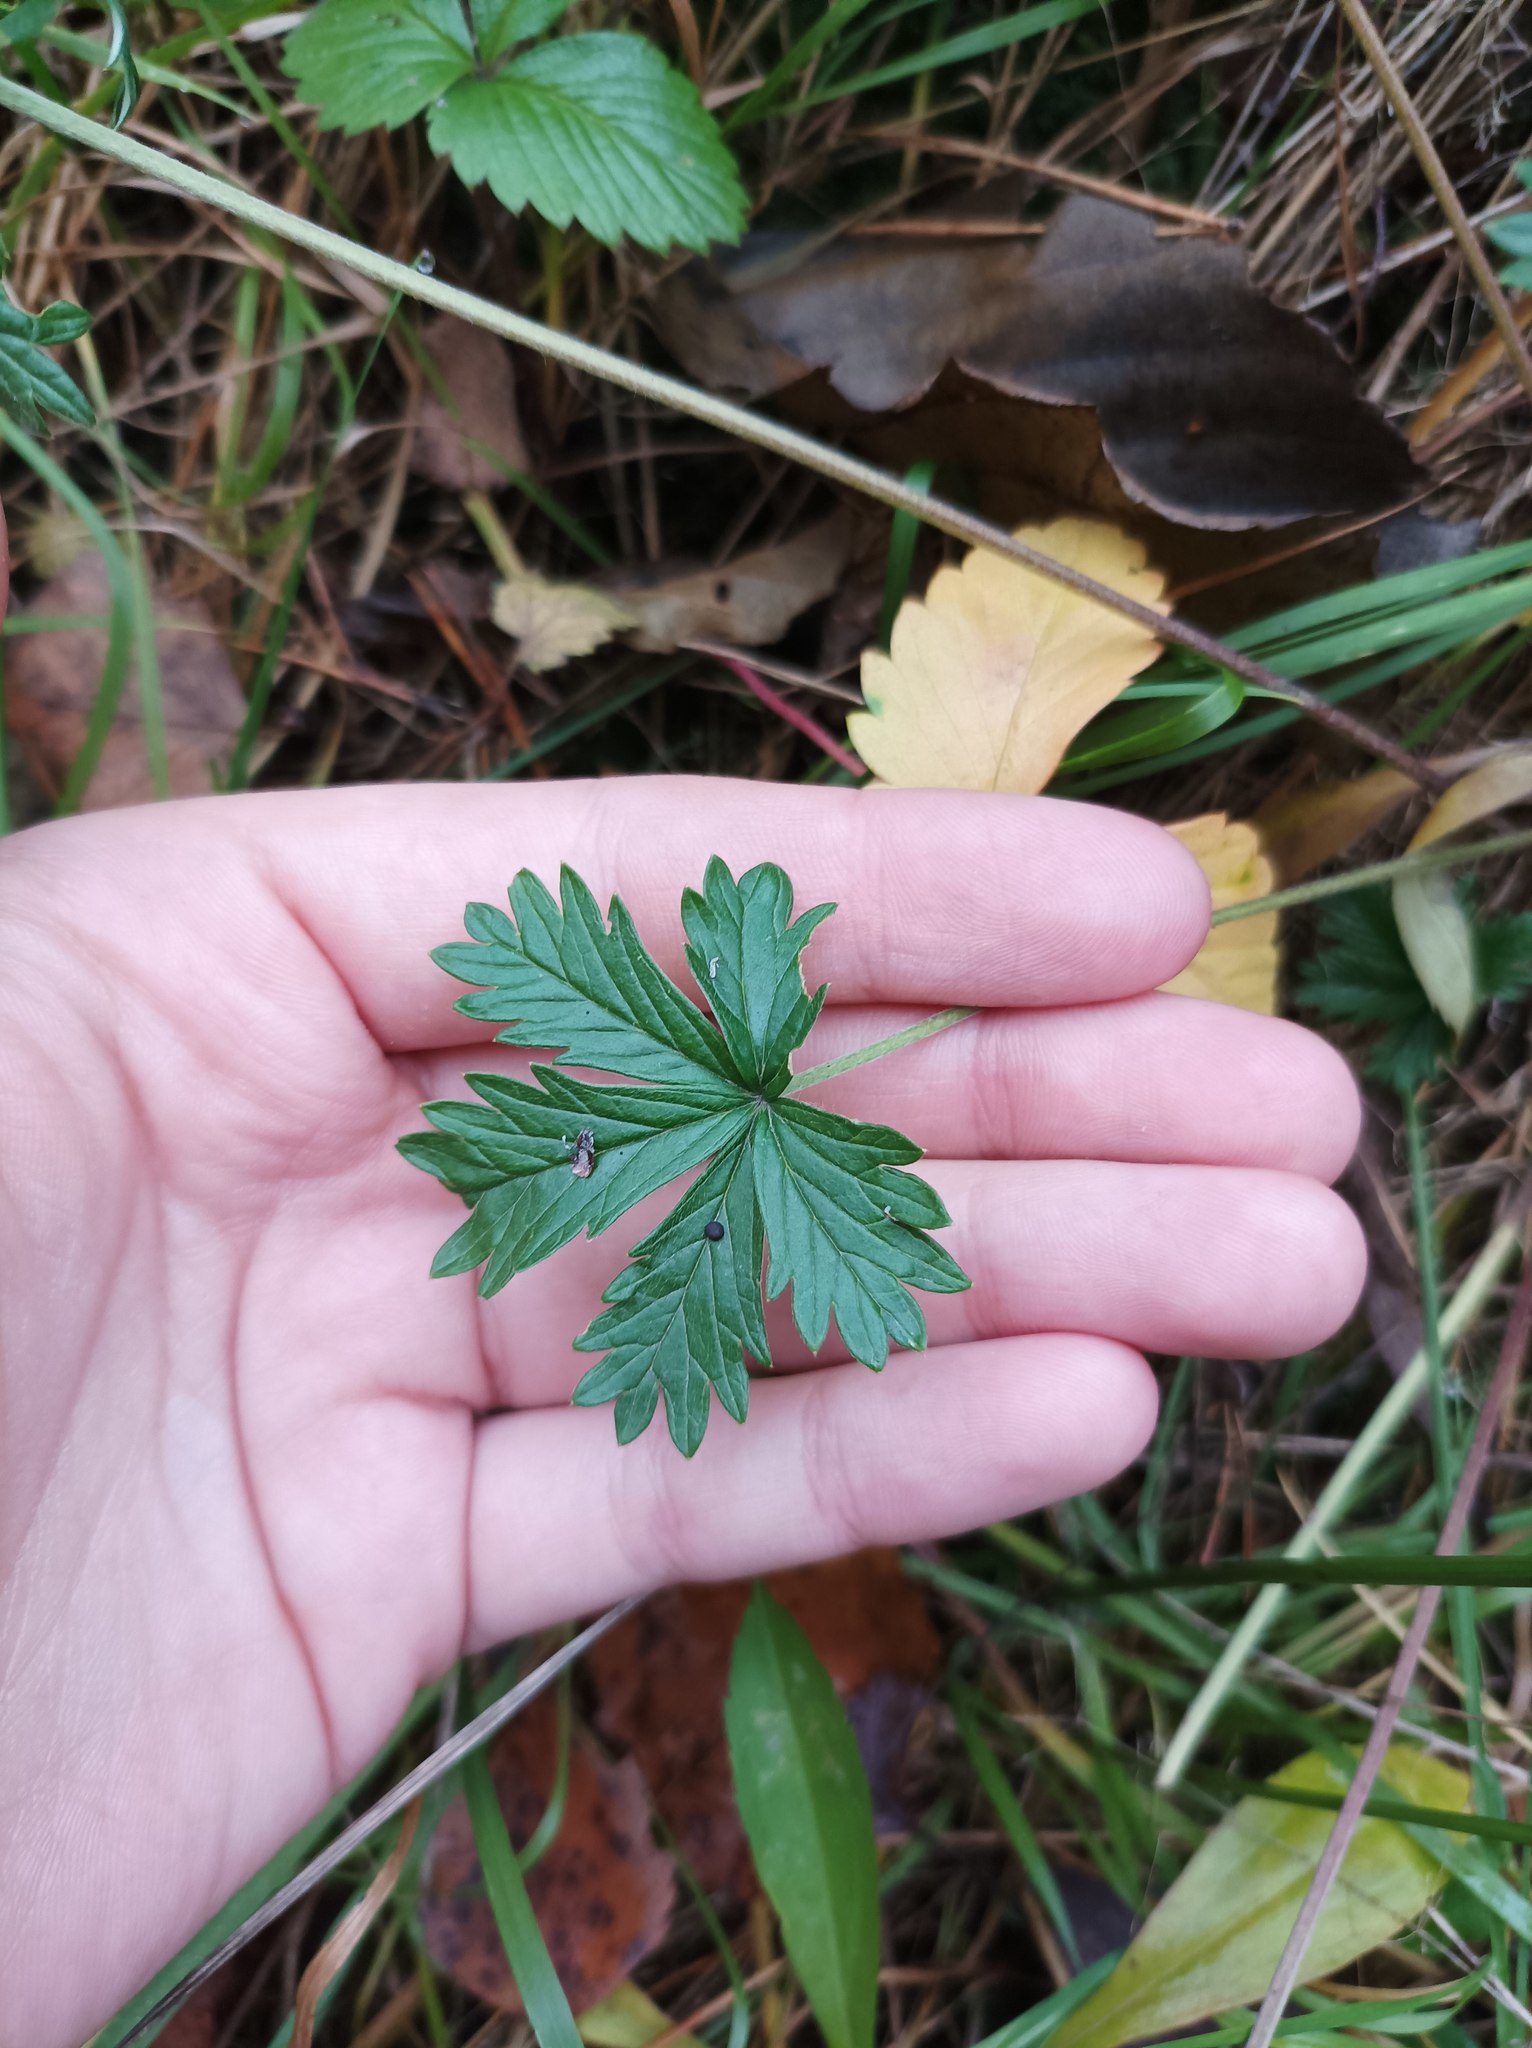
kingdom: Plantae
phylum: Tracheophyta
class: Magnoliopsida
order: Rosales
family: Rosaceae
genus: Potentilla
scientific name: Potentilla argentea
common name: Hoary cinquefoil
